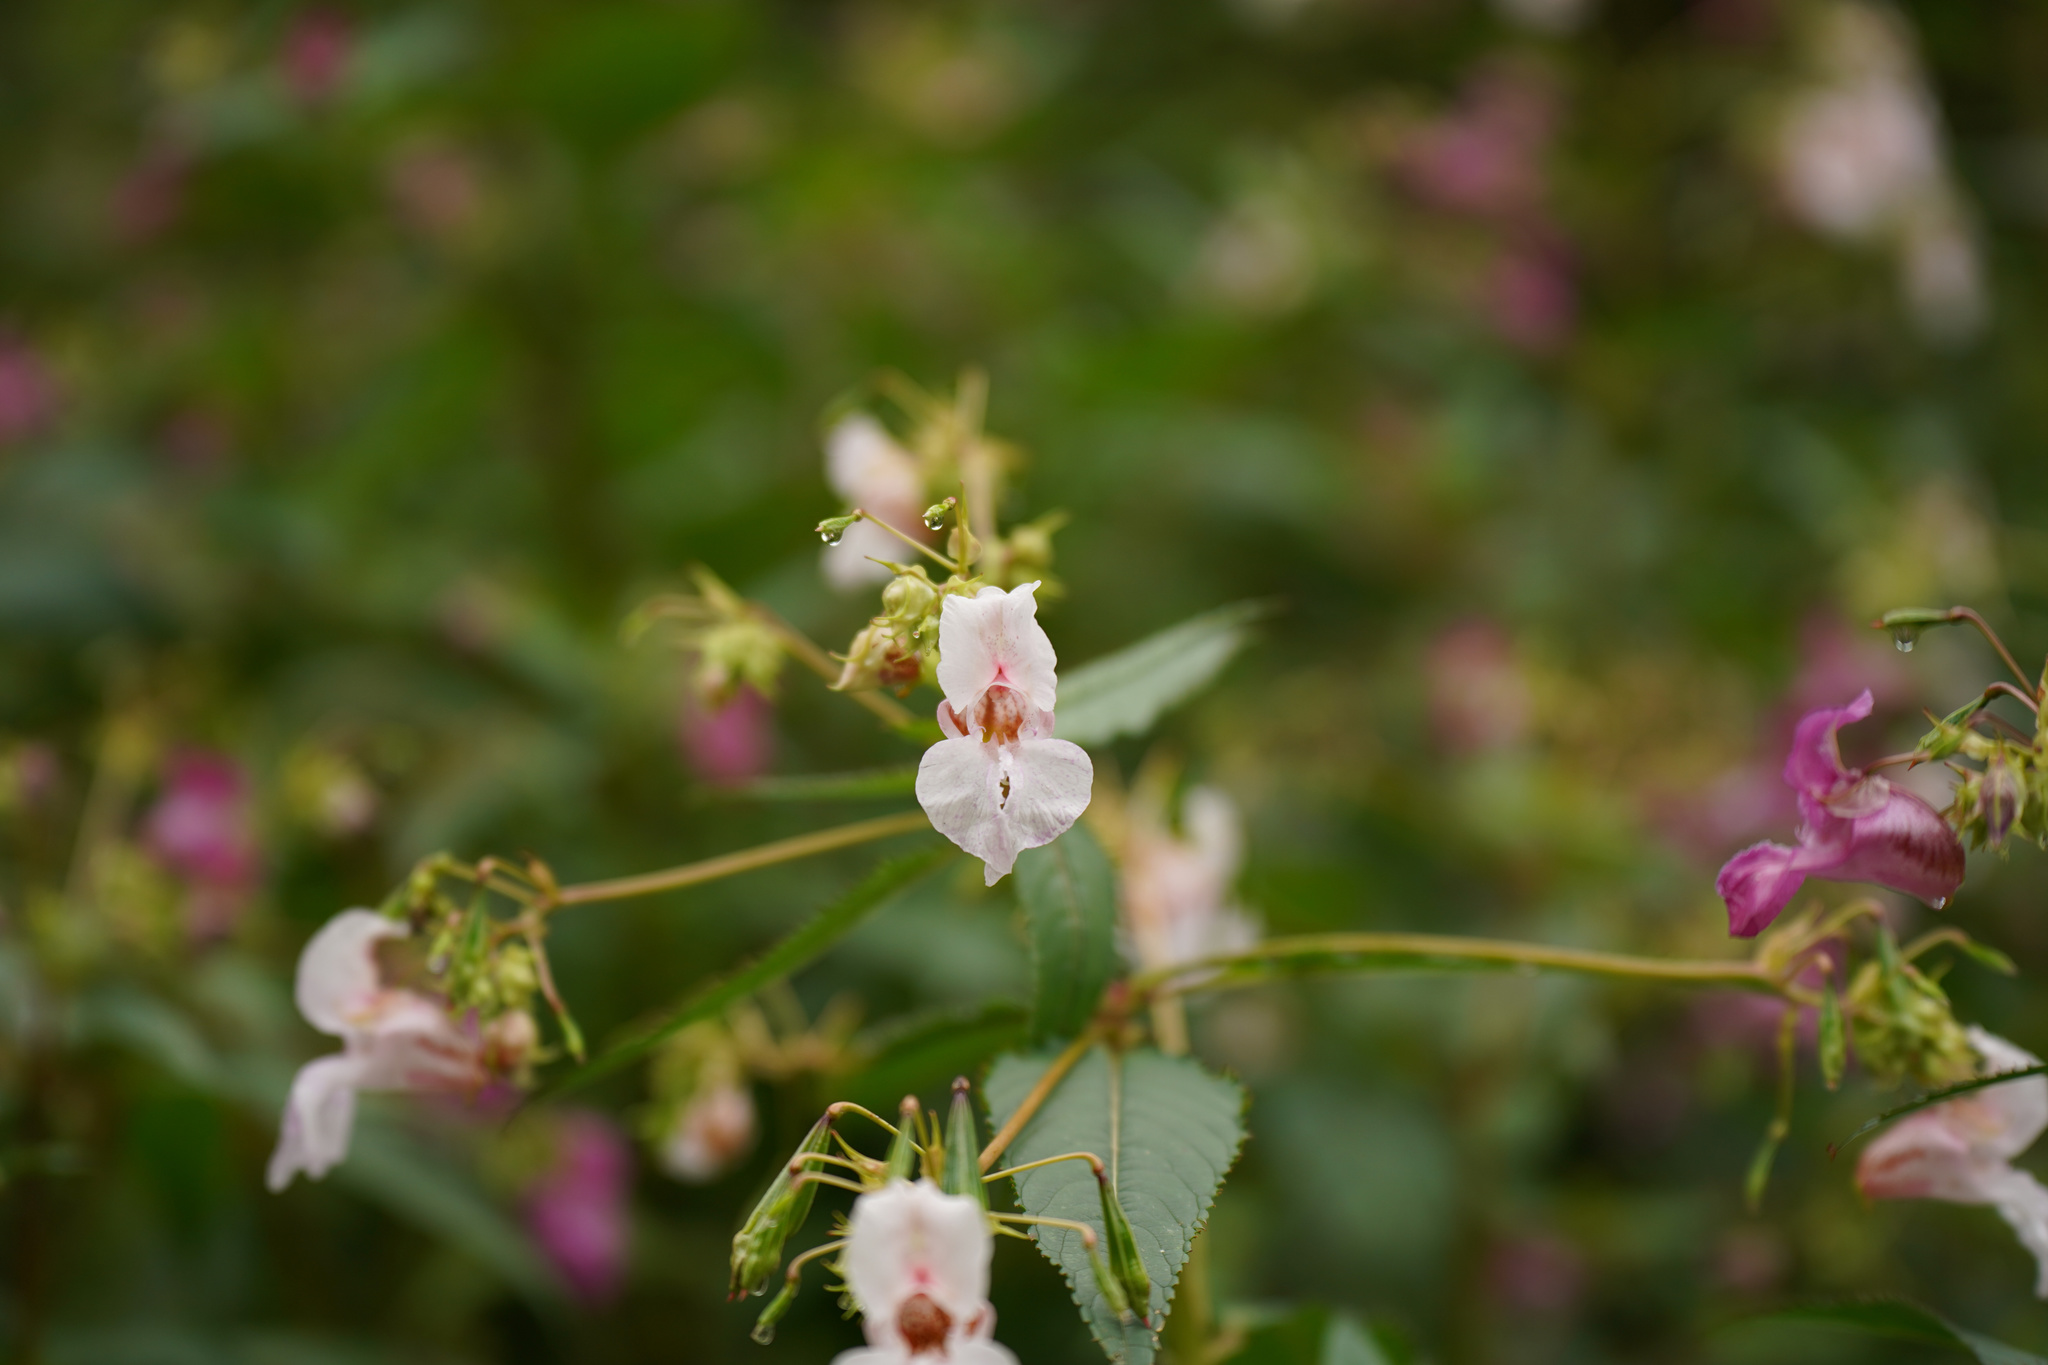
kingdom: Plantae
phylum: Tracheophyta
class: Magnoliopsida
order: Ericales
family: Balsaminaceae
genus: Impatiens
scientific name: Impatiens glandulifera
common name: Himalayan balsam
